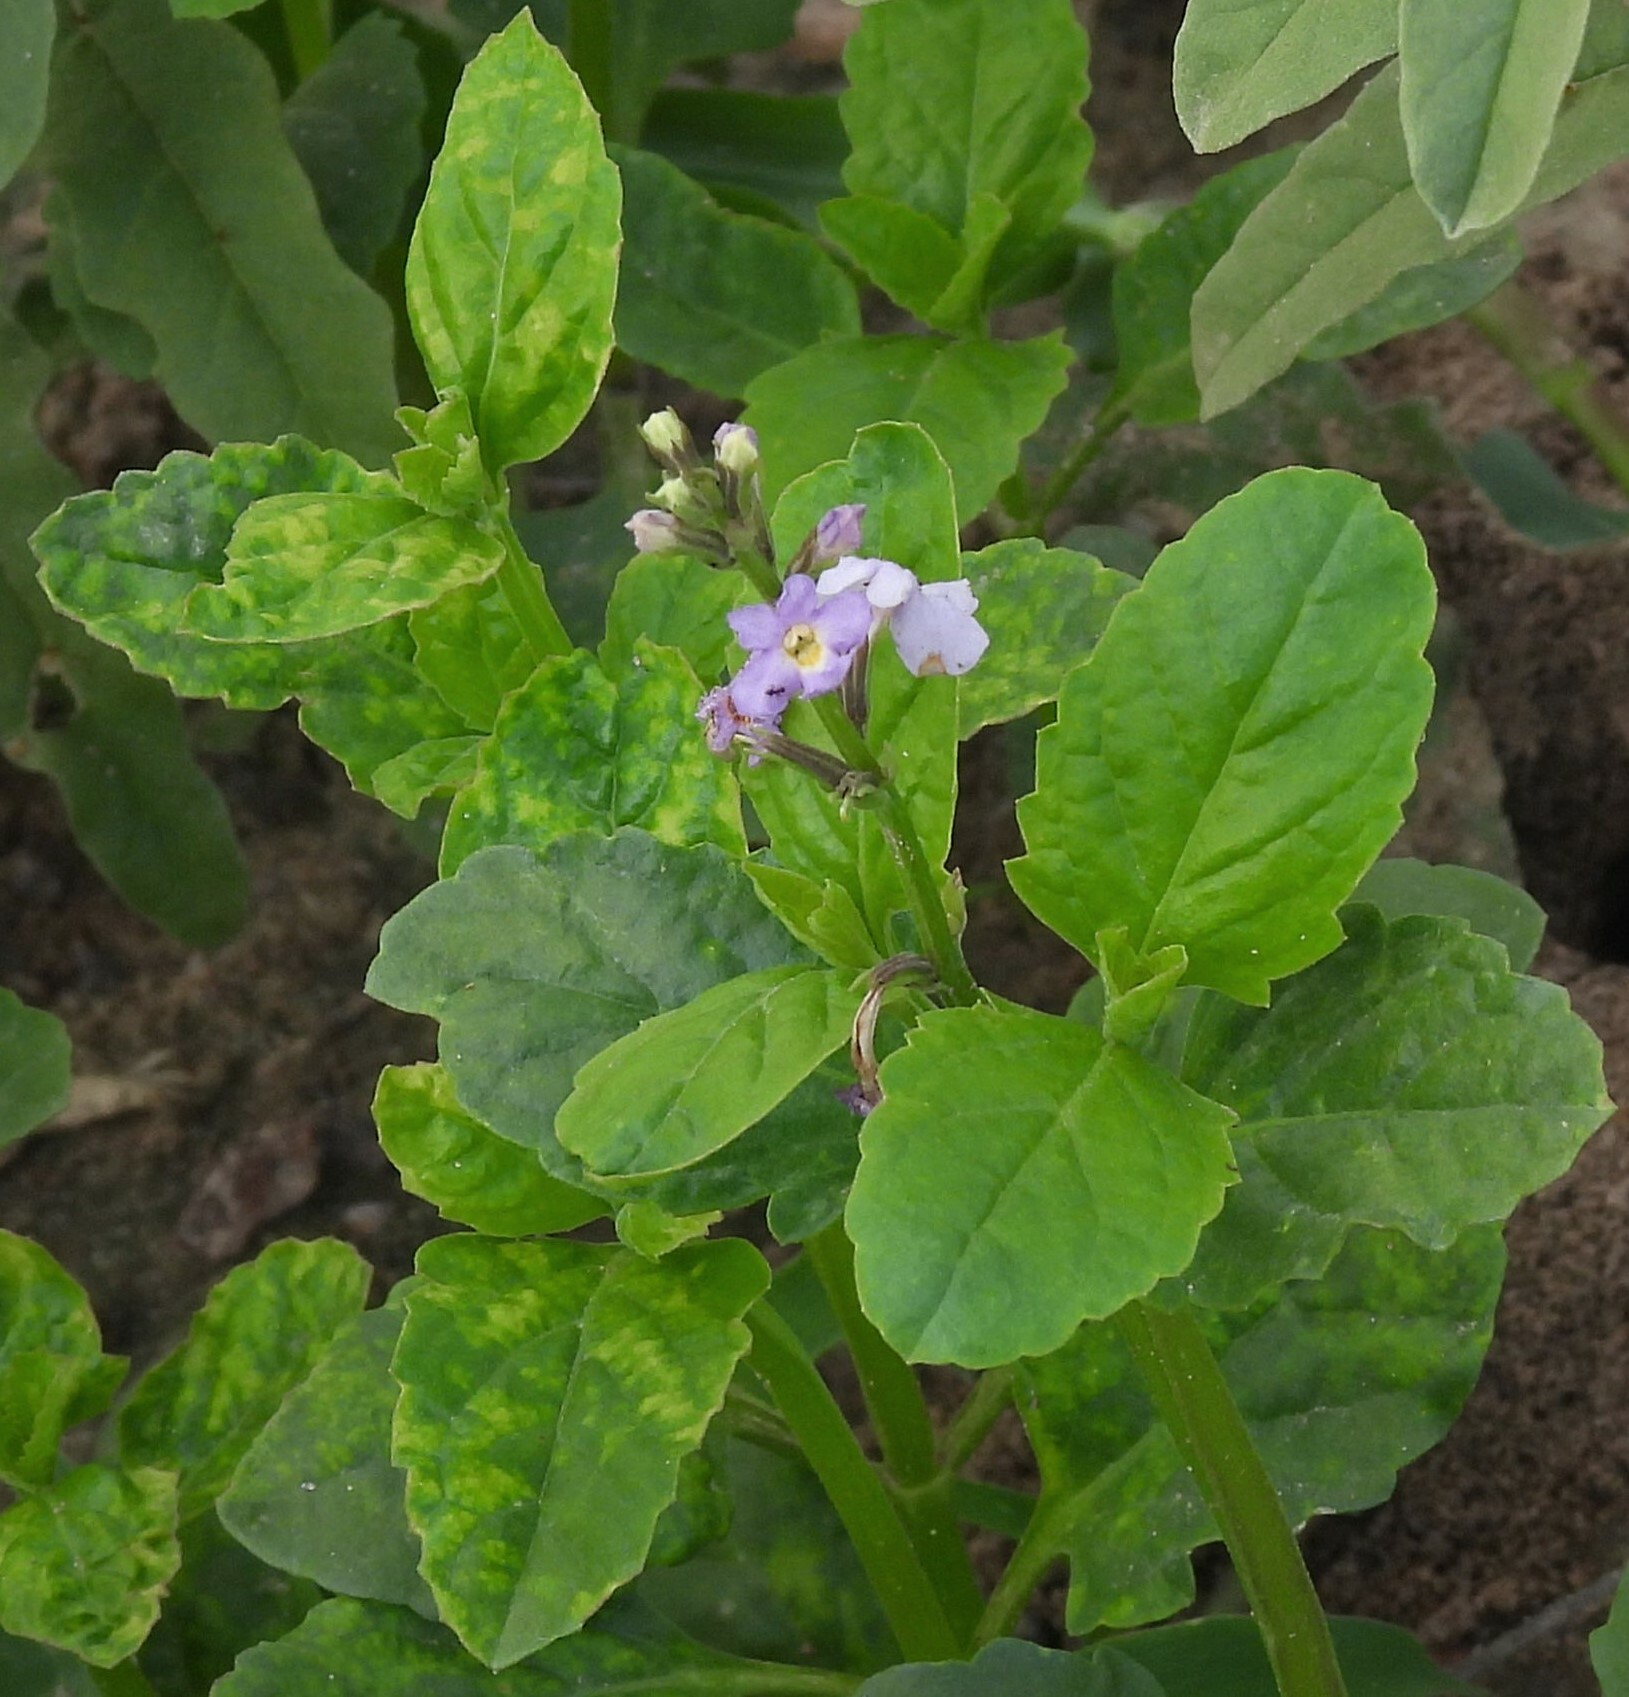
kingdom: Plantae
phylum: Tracheophyta
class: Magnoliopsida
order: Lamiales
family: Verbenaceae
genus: Pitraea
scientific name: Pitraea cuneato-ovata
